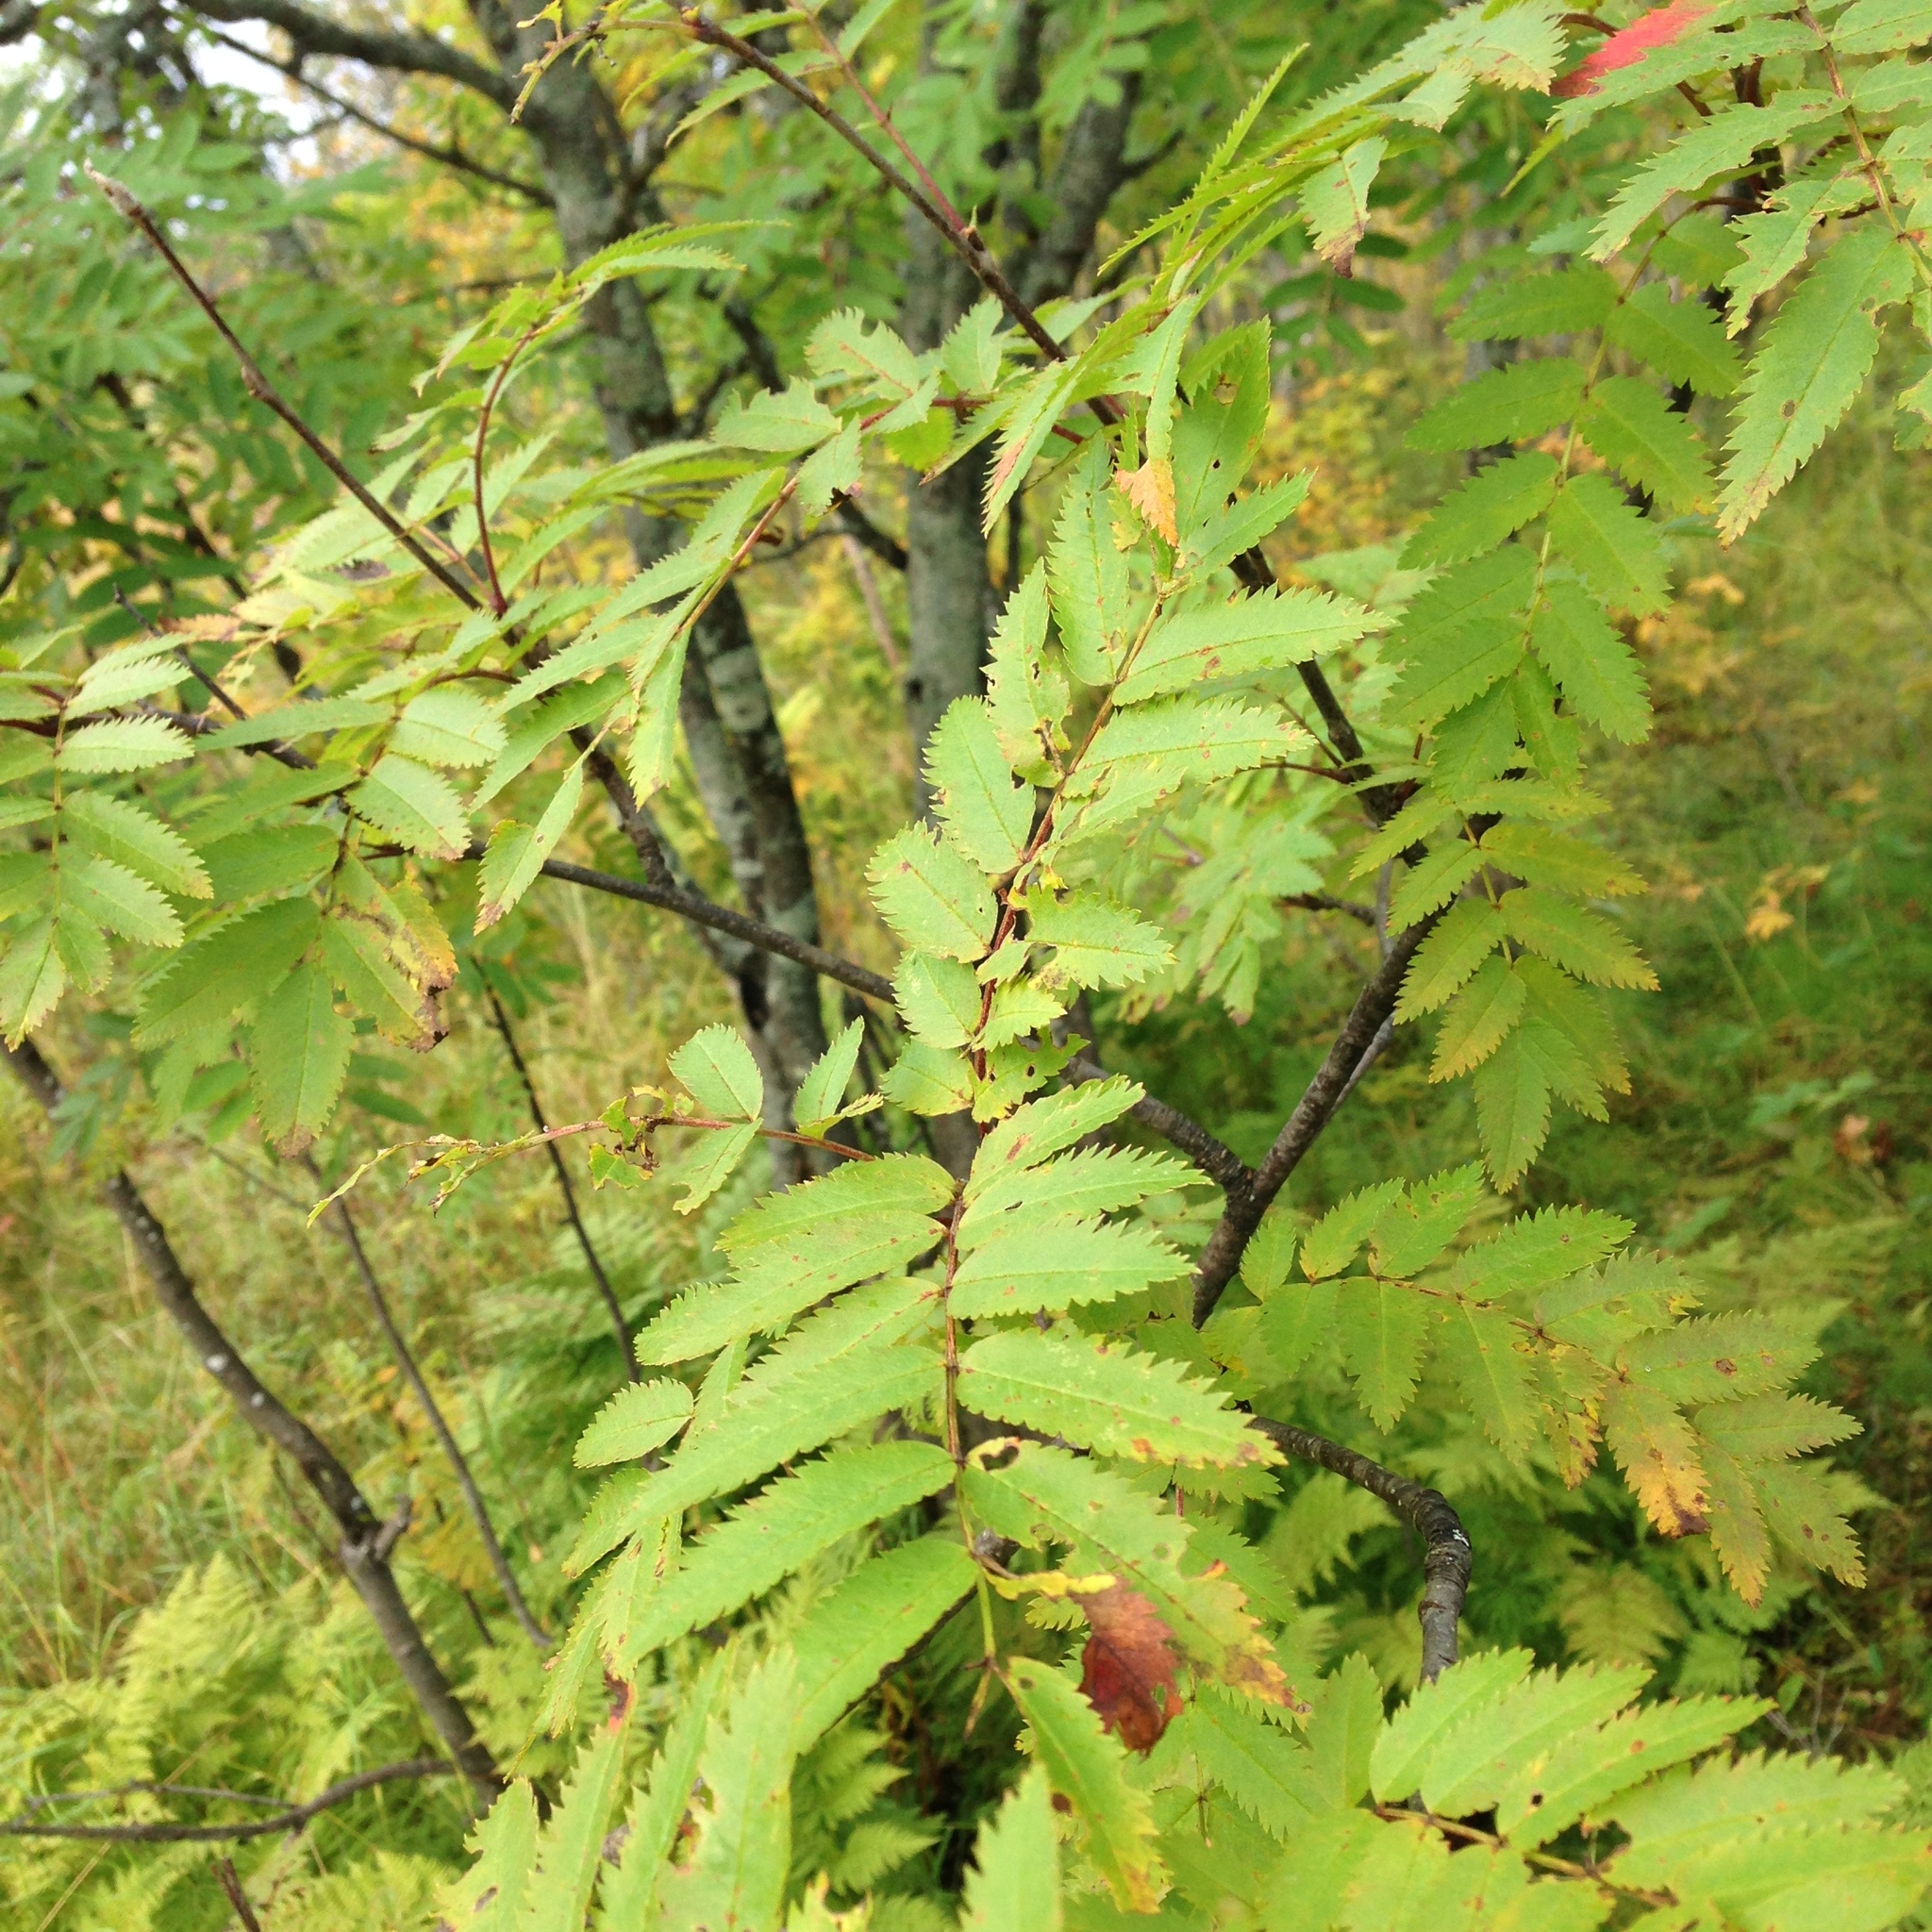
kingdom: Plantae
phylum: Tracheophyta
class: Magnoliopsida
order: Rosales
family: Rosaceae
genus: Sorbus
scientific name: Sorbus aucuparia
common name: Rowan
